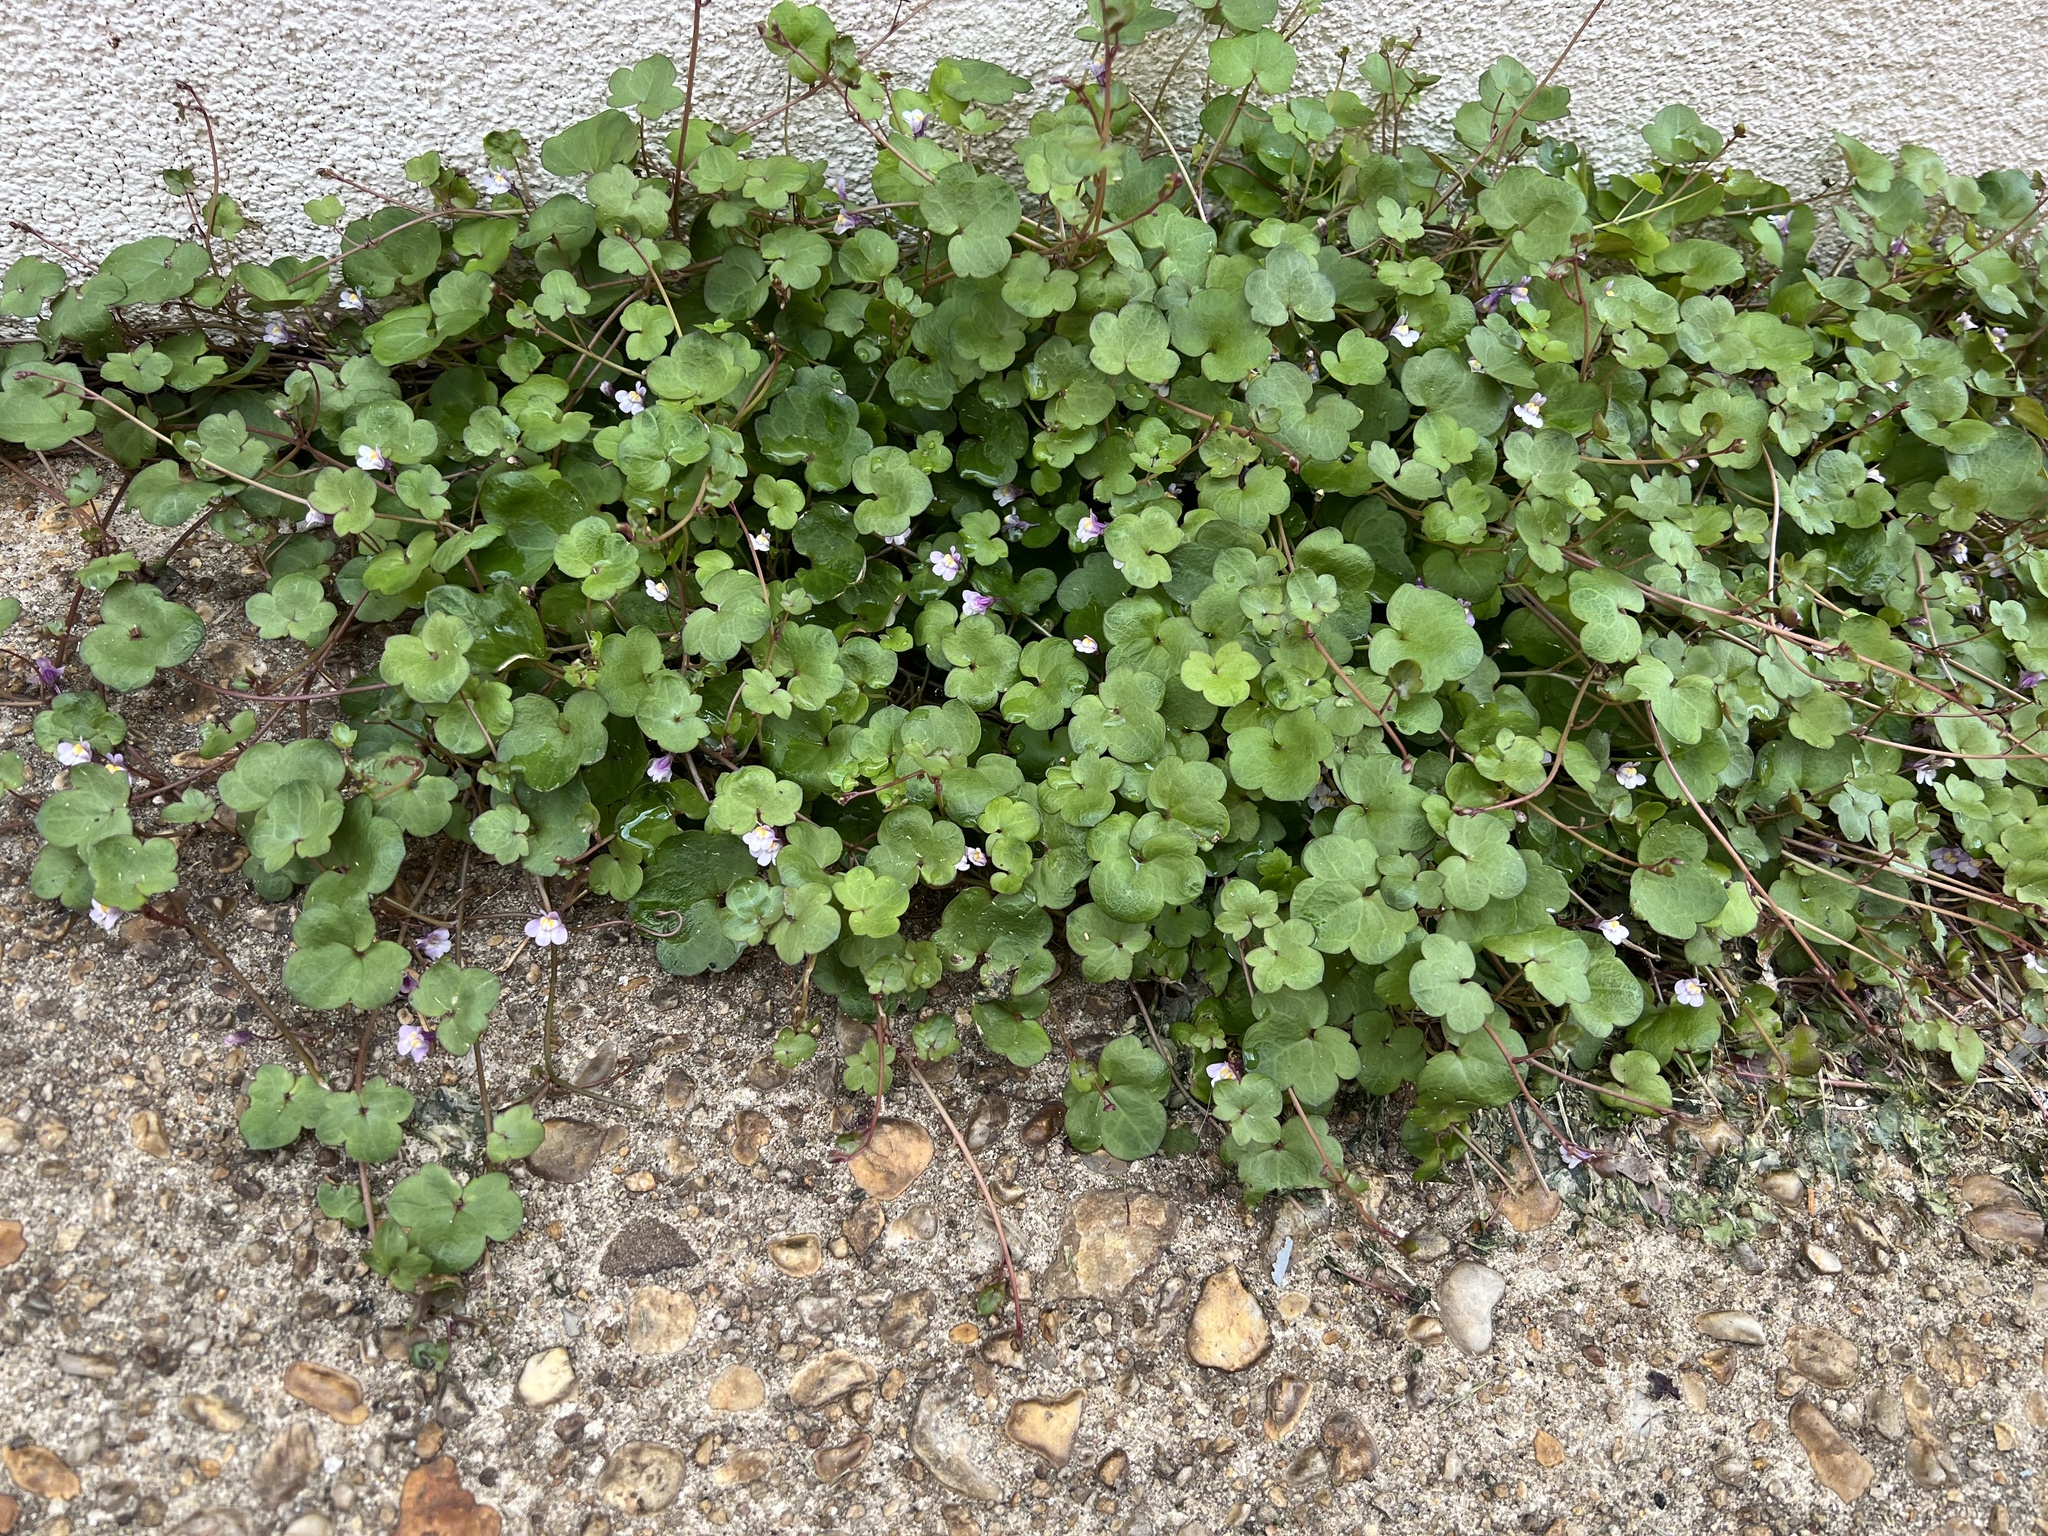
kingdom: Plantae
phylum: Tracheophyta
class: Magnoliopsida
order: Lamiales
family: Plantaginaceae
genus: Cymbalaria
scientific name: Cymbalaria muralis
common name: Ivy-leaved toadflax
